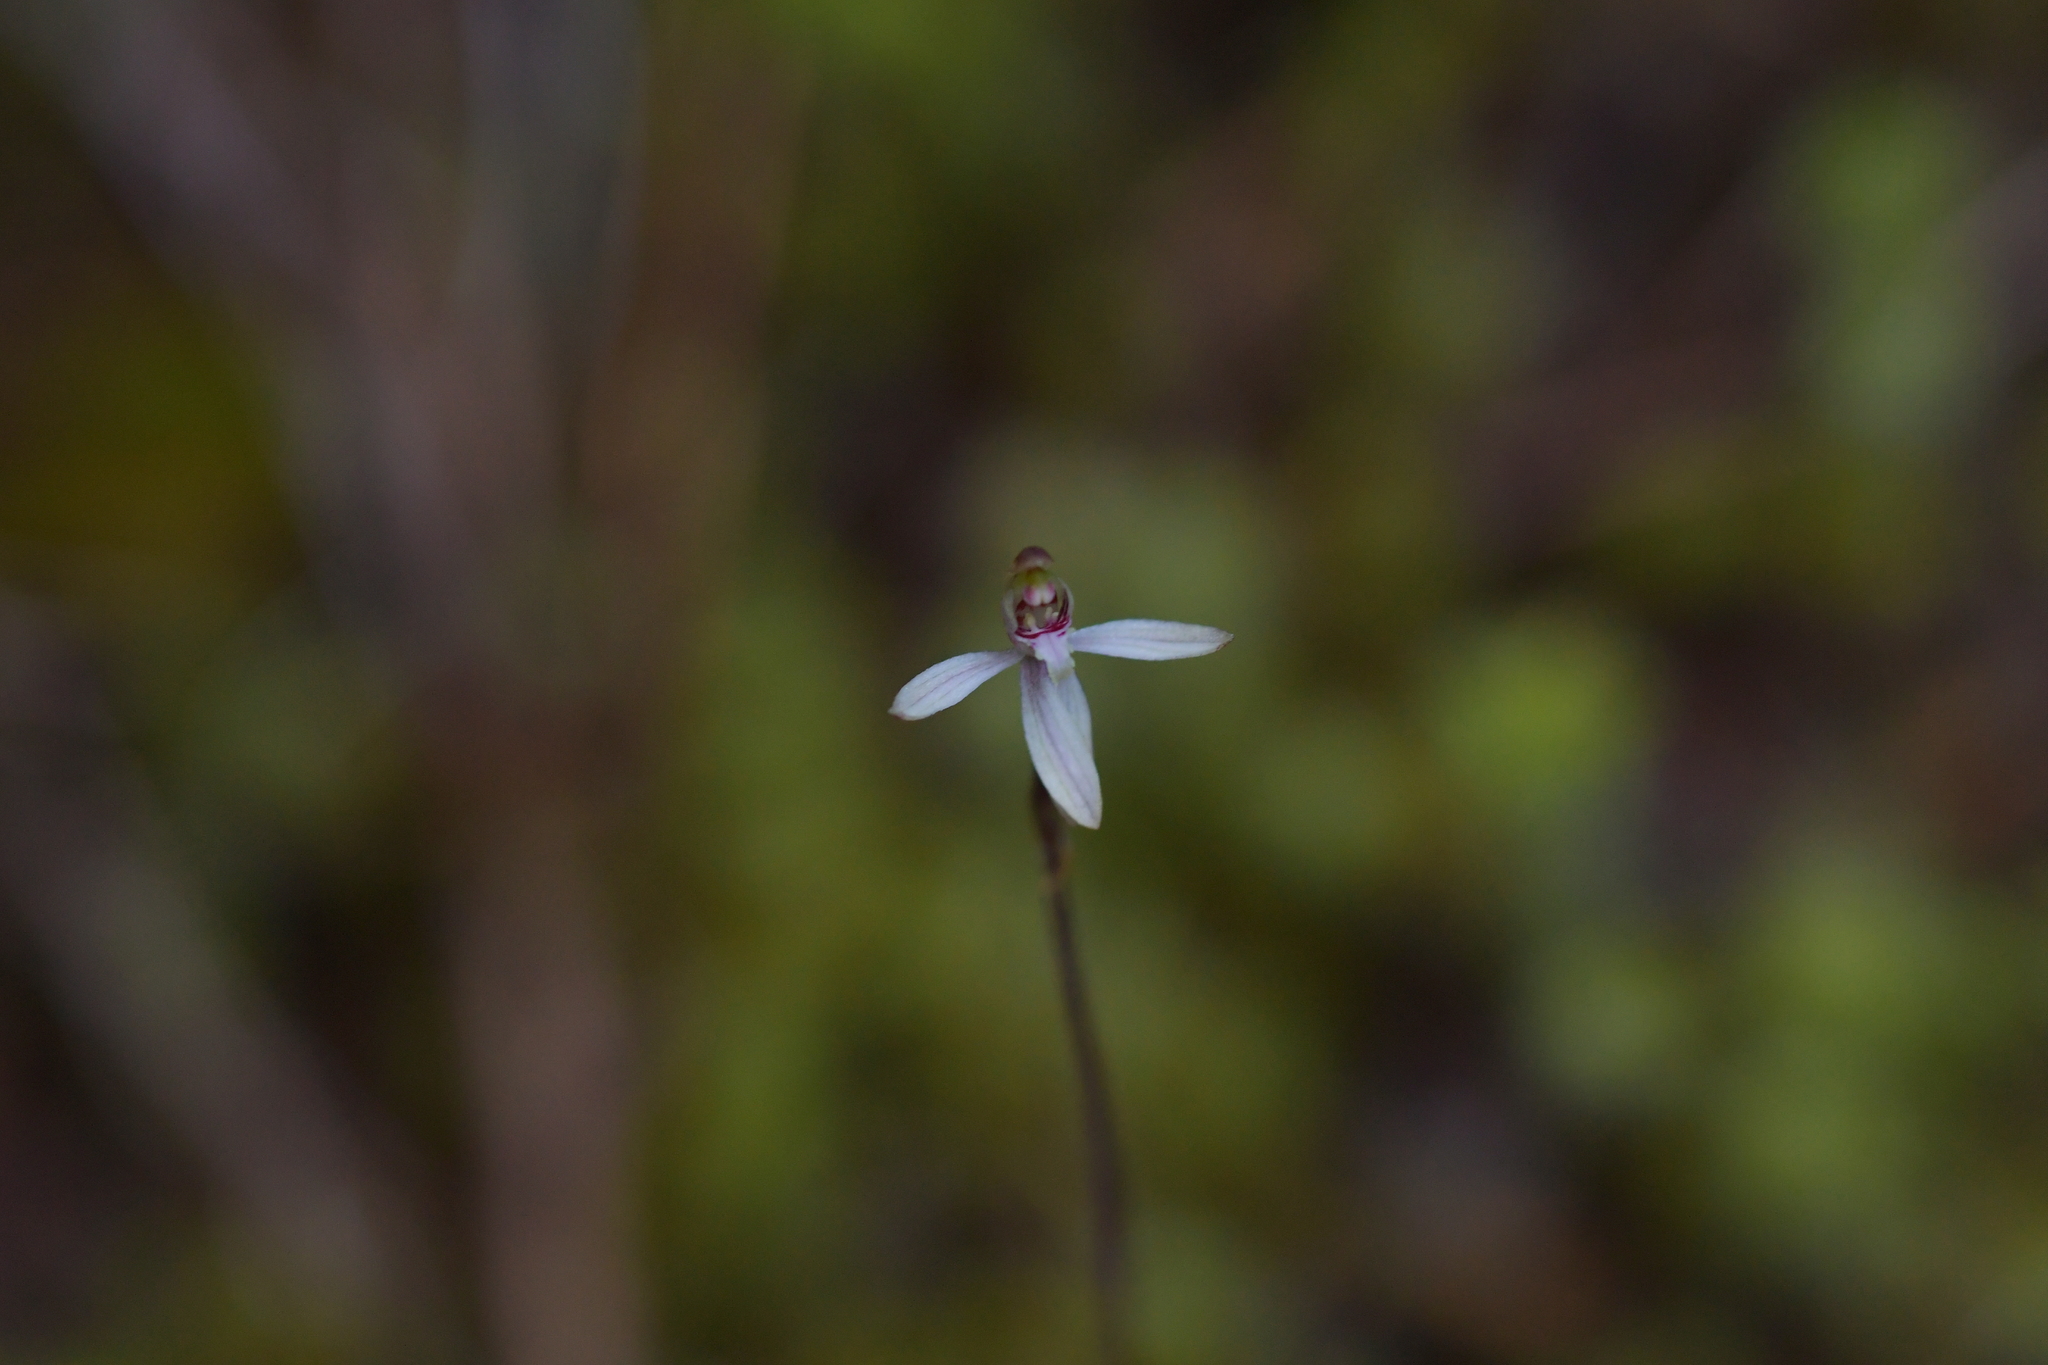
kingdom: Plantae
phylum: Tracheophyta
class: Liliopsida
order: Asparagales
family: Orchidaceae
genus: Caladenia
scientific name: Caladenia chlorostyla
